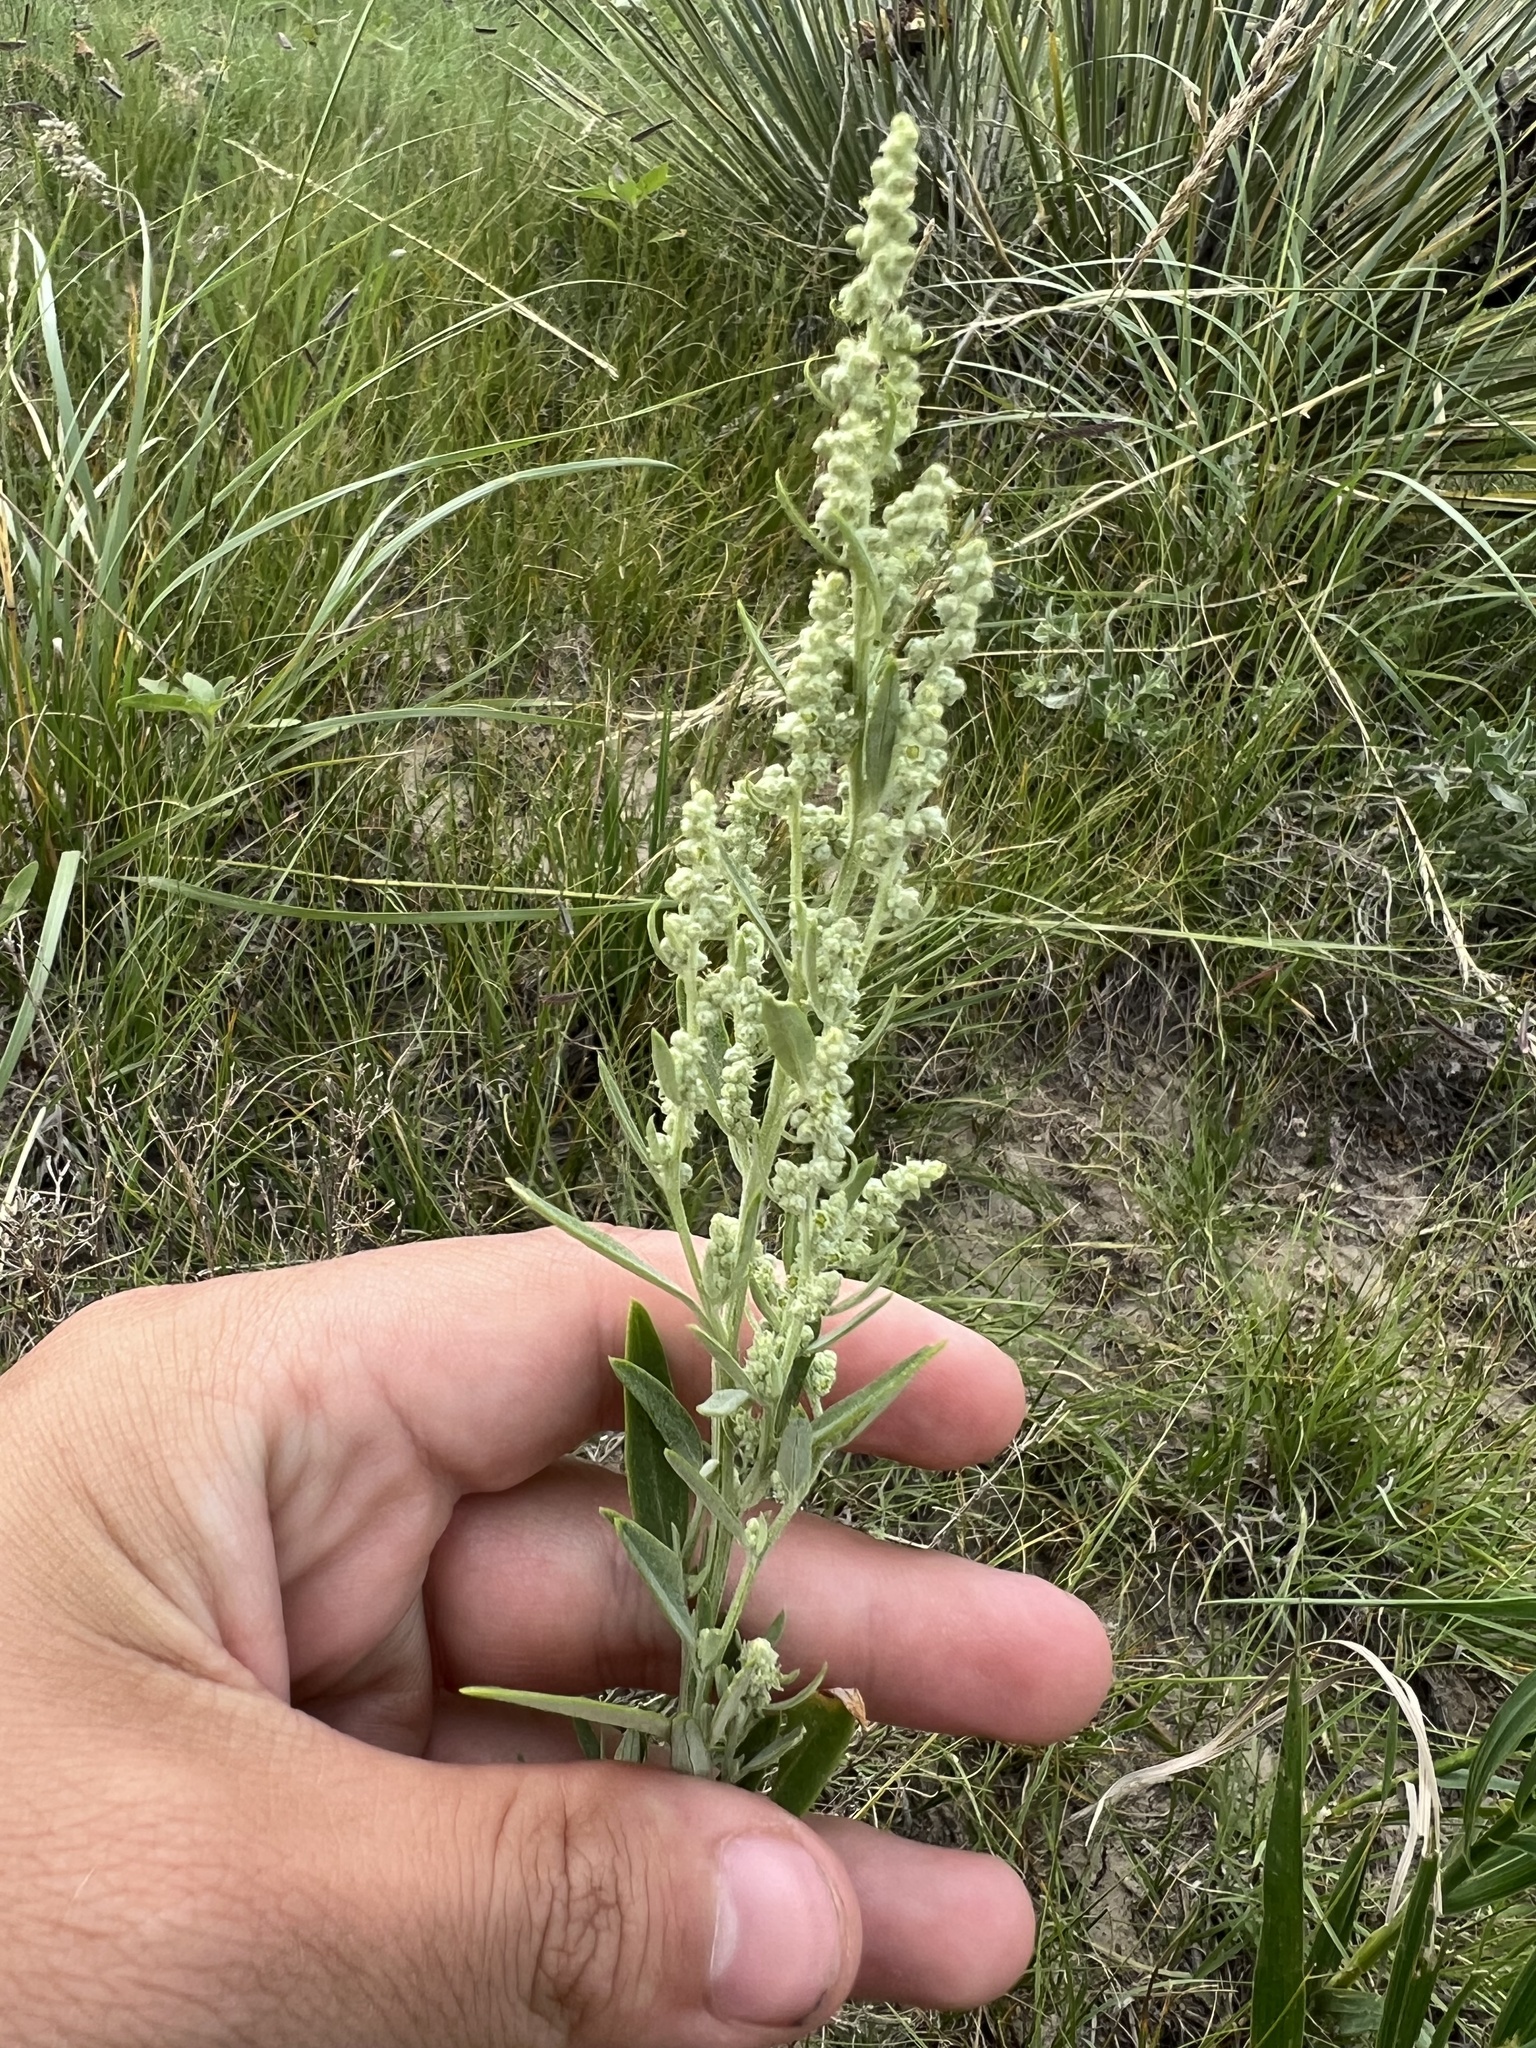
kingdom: Plantae
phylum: Tracheophyta
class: Magnoliopsida
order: Caryophyllales
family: Amaranthaceae
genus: Chenopodium
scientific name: Chenopodium desiccatum
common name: Slimleaf goosefoot
